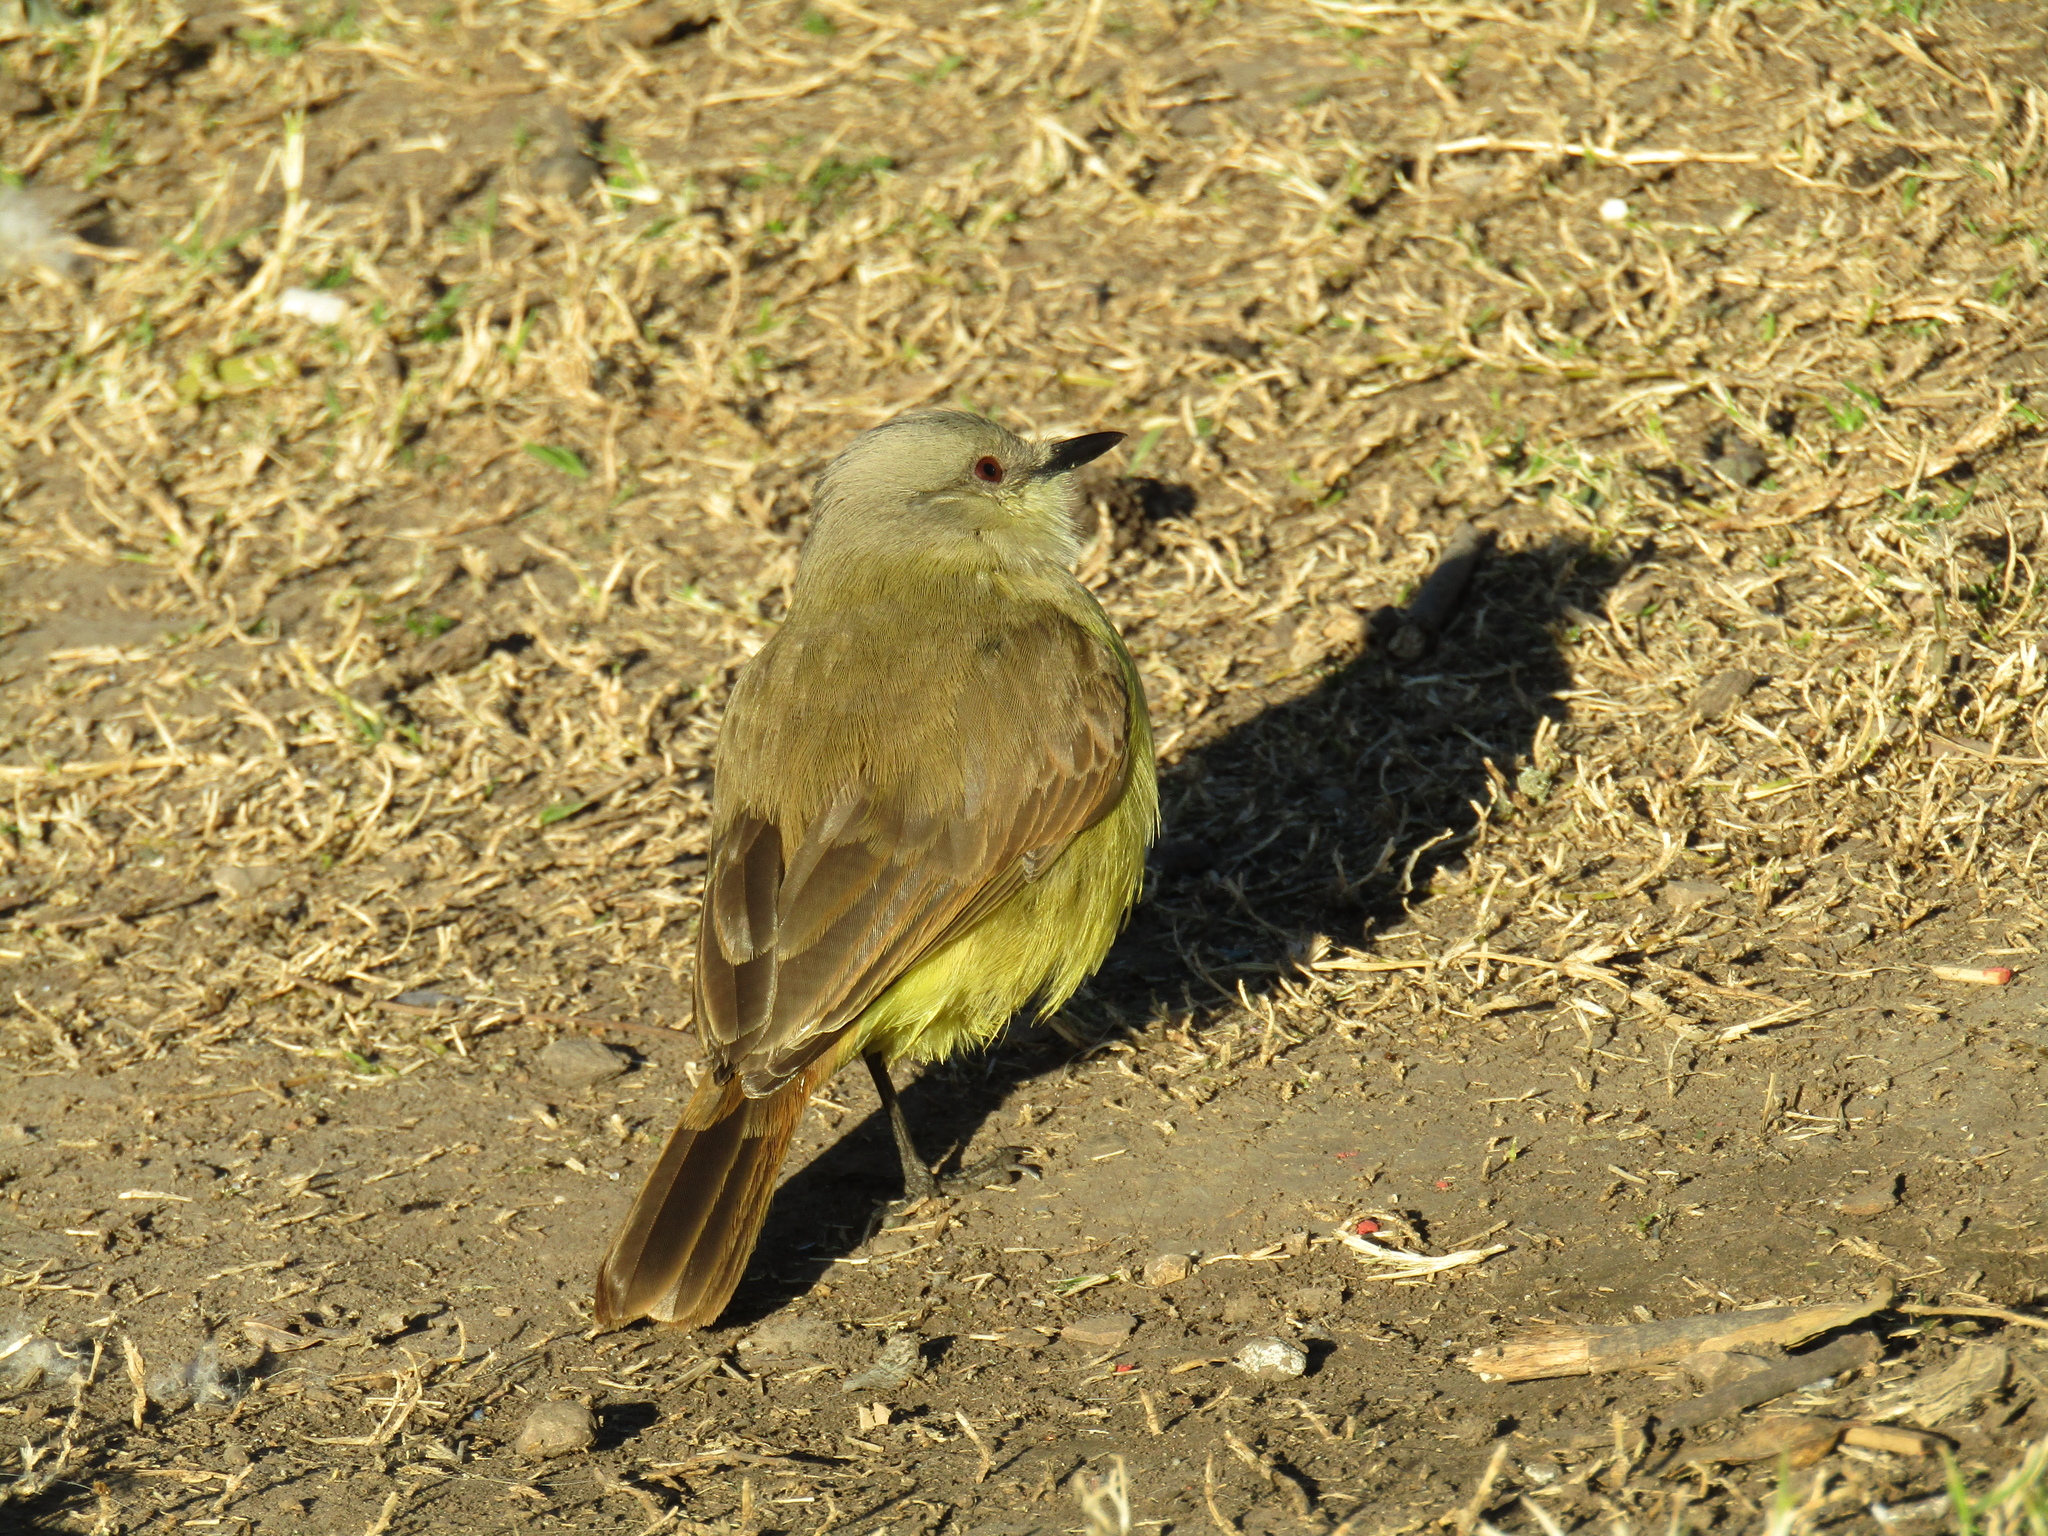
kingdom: Animalia
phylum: Chordata
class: Aves
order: Passeriformes
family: Tyrannidae
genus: Machetornis
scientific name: Machetornis rixosa
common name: Cattle tyrant
